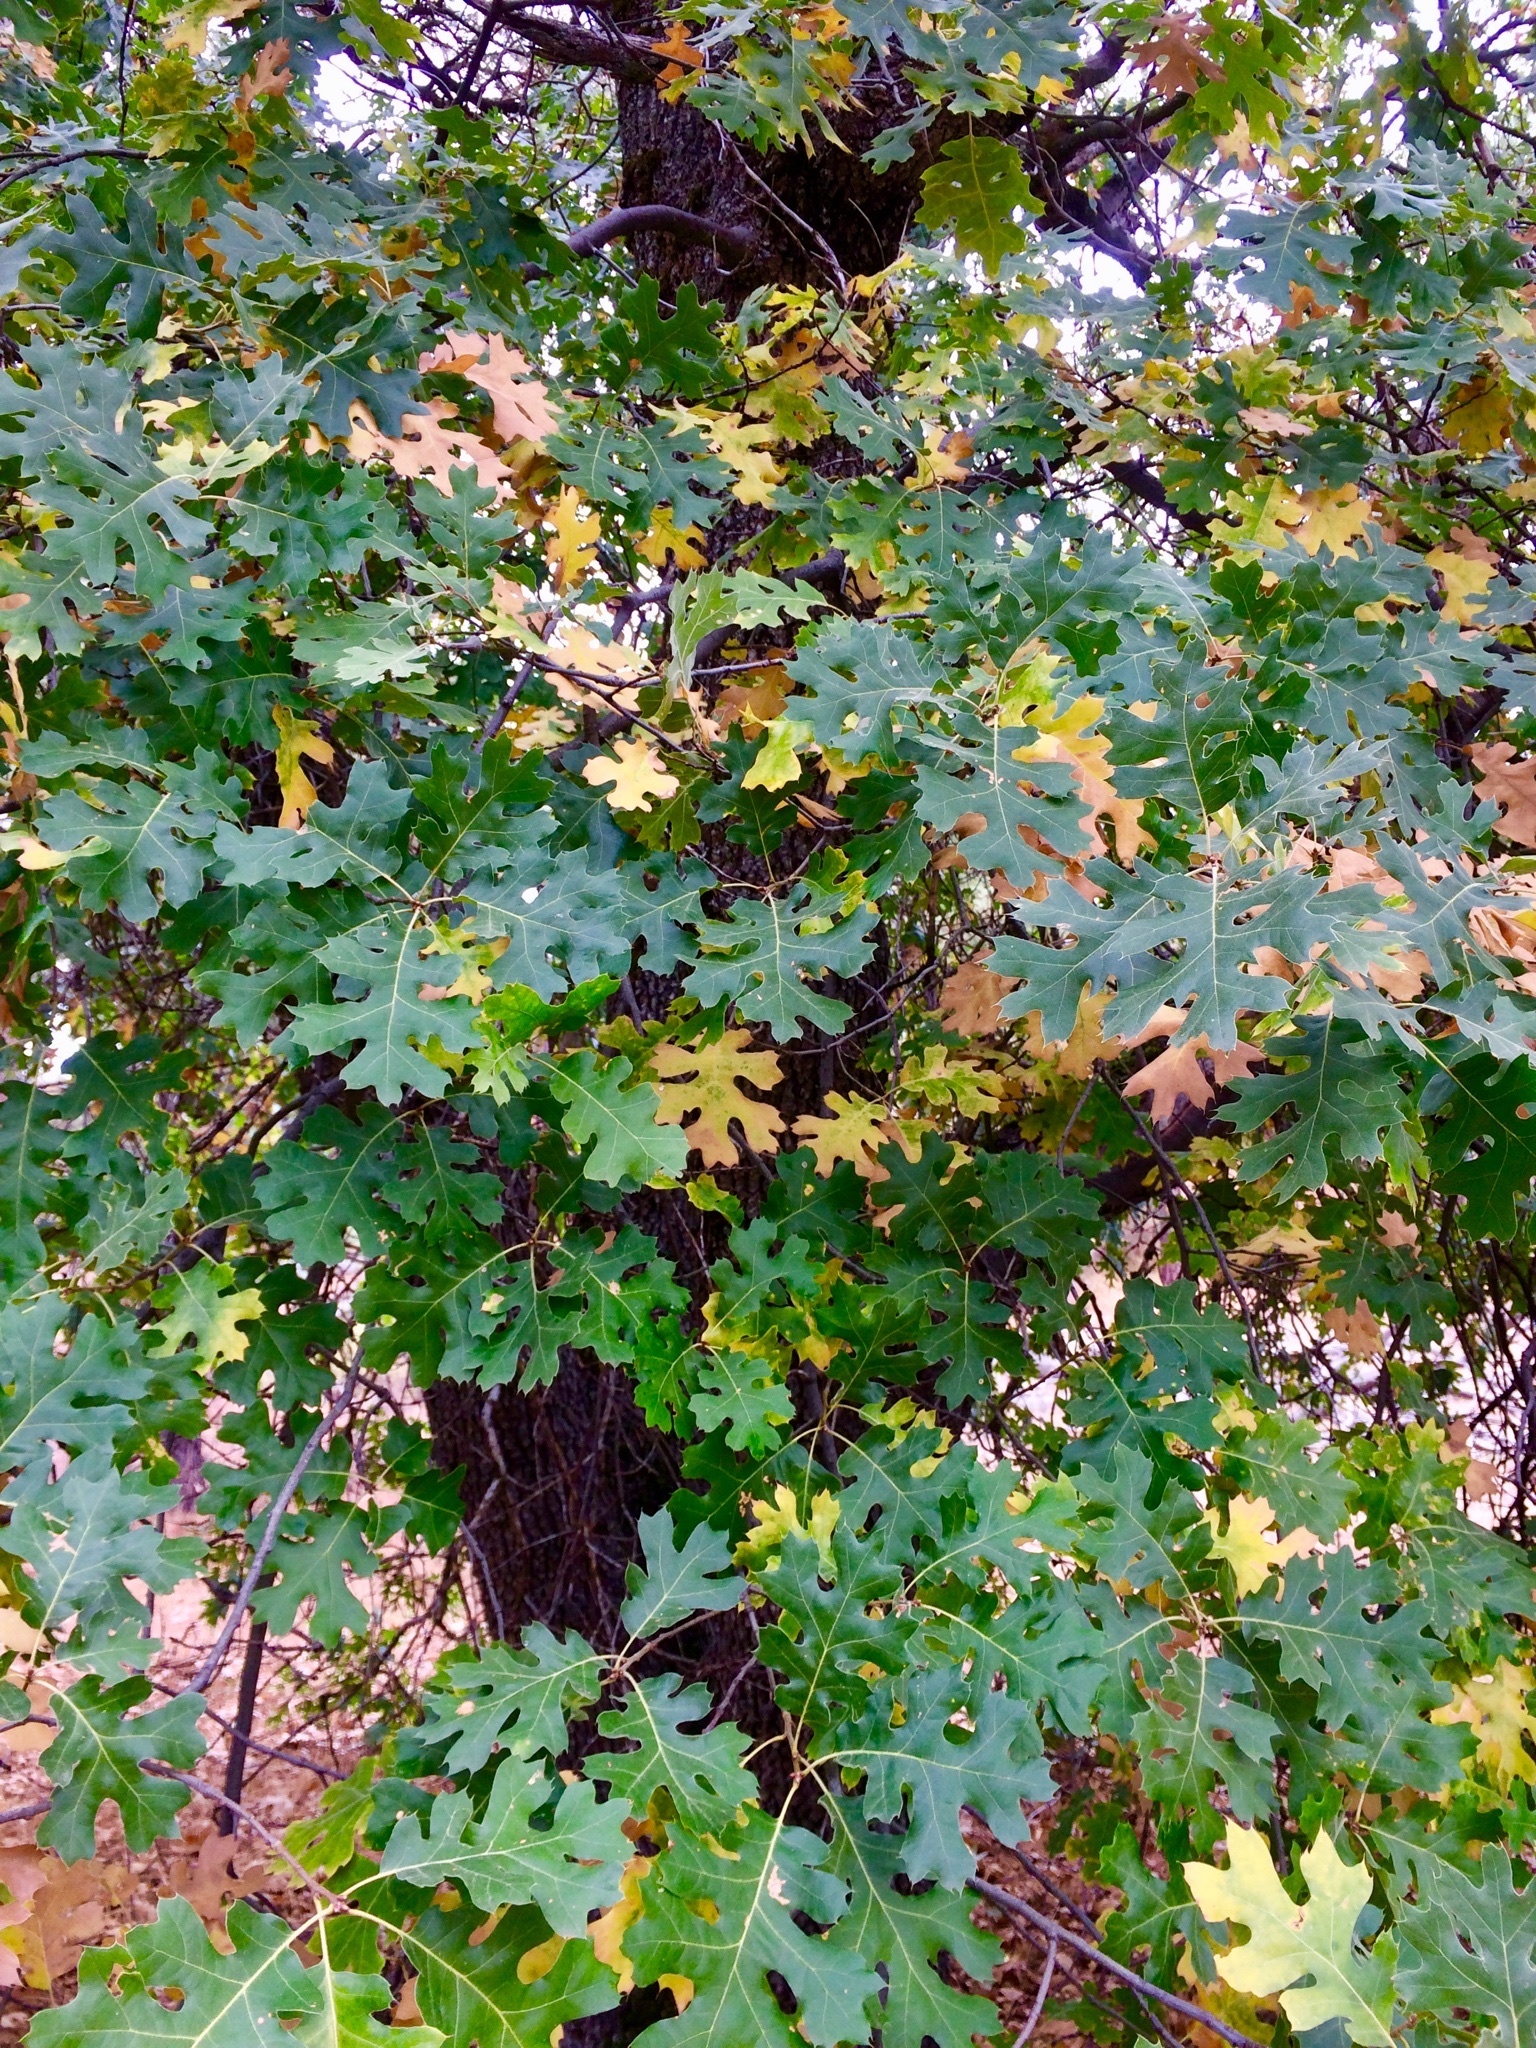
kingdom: Plantae
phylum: Tracheophyta
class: Magnoliopsida
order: Fagales
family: Fagaceae
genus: Quercus
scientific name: Quercus kelloggii
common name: California black oak
